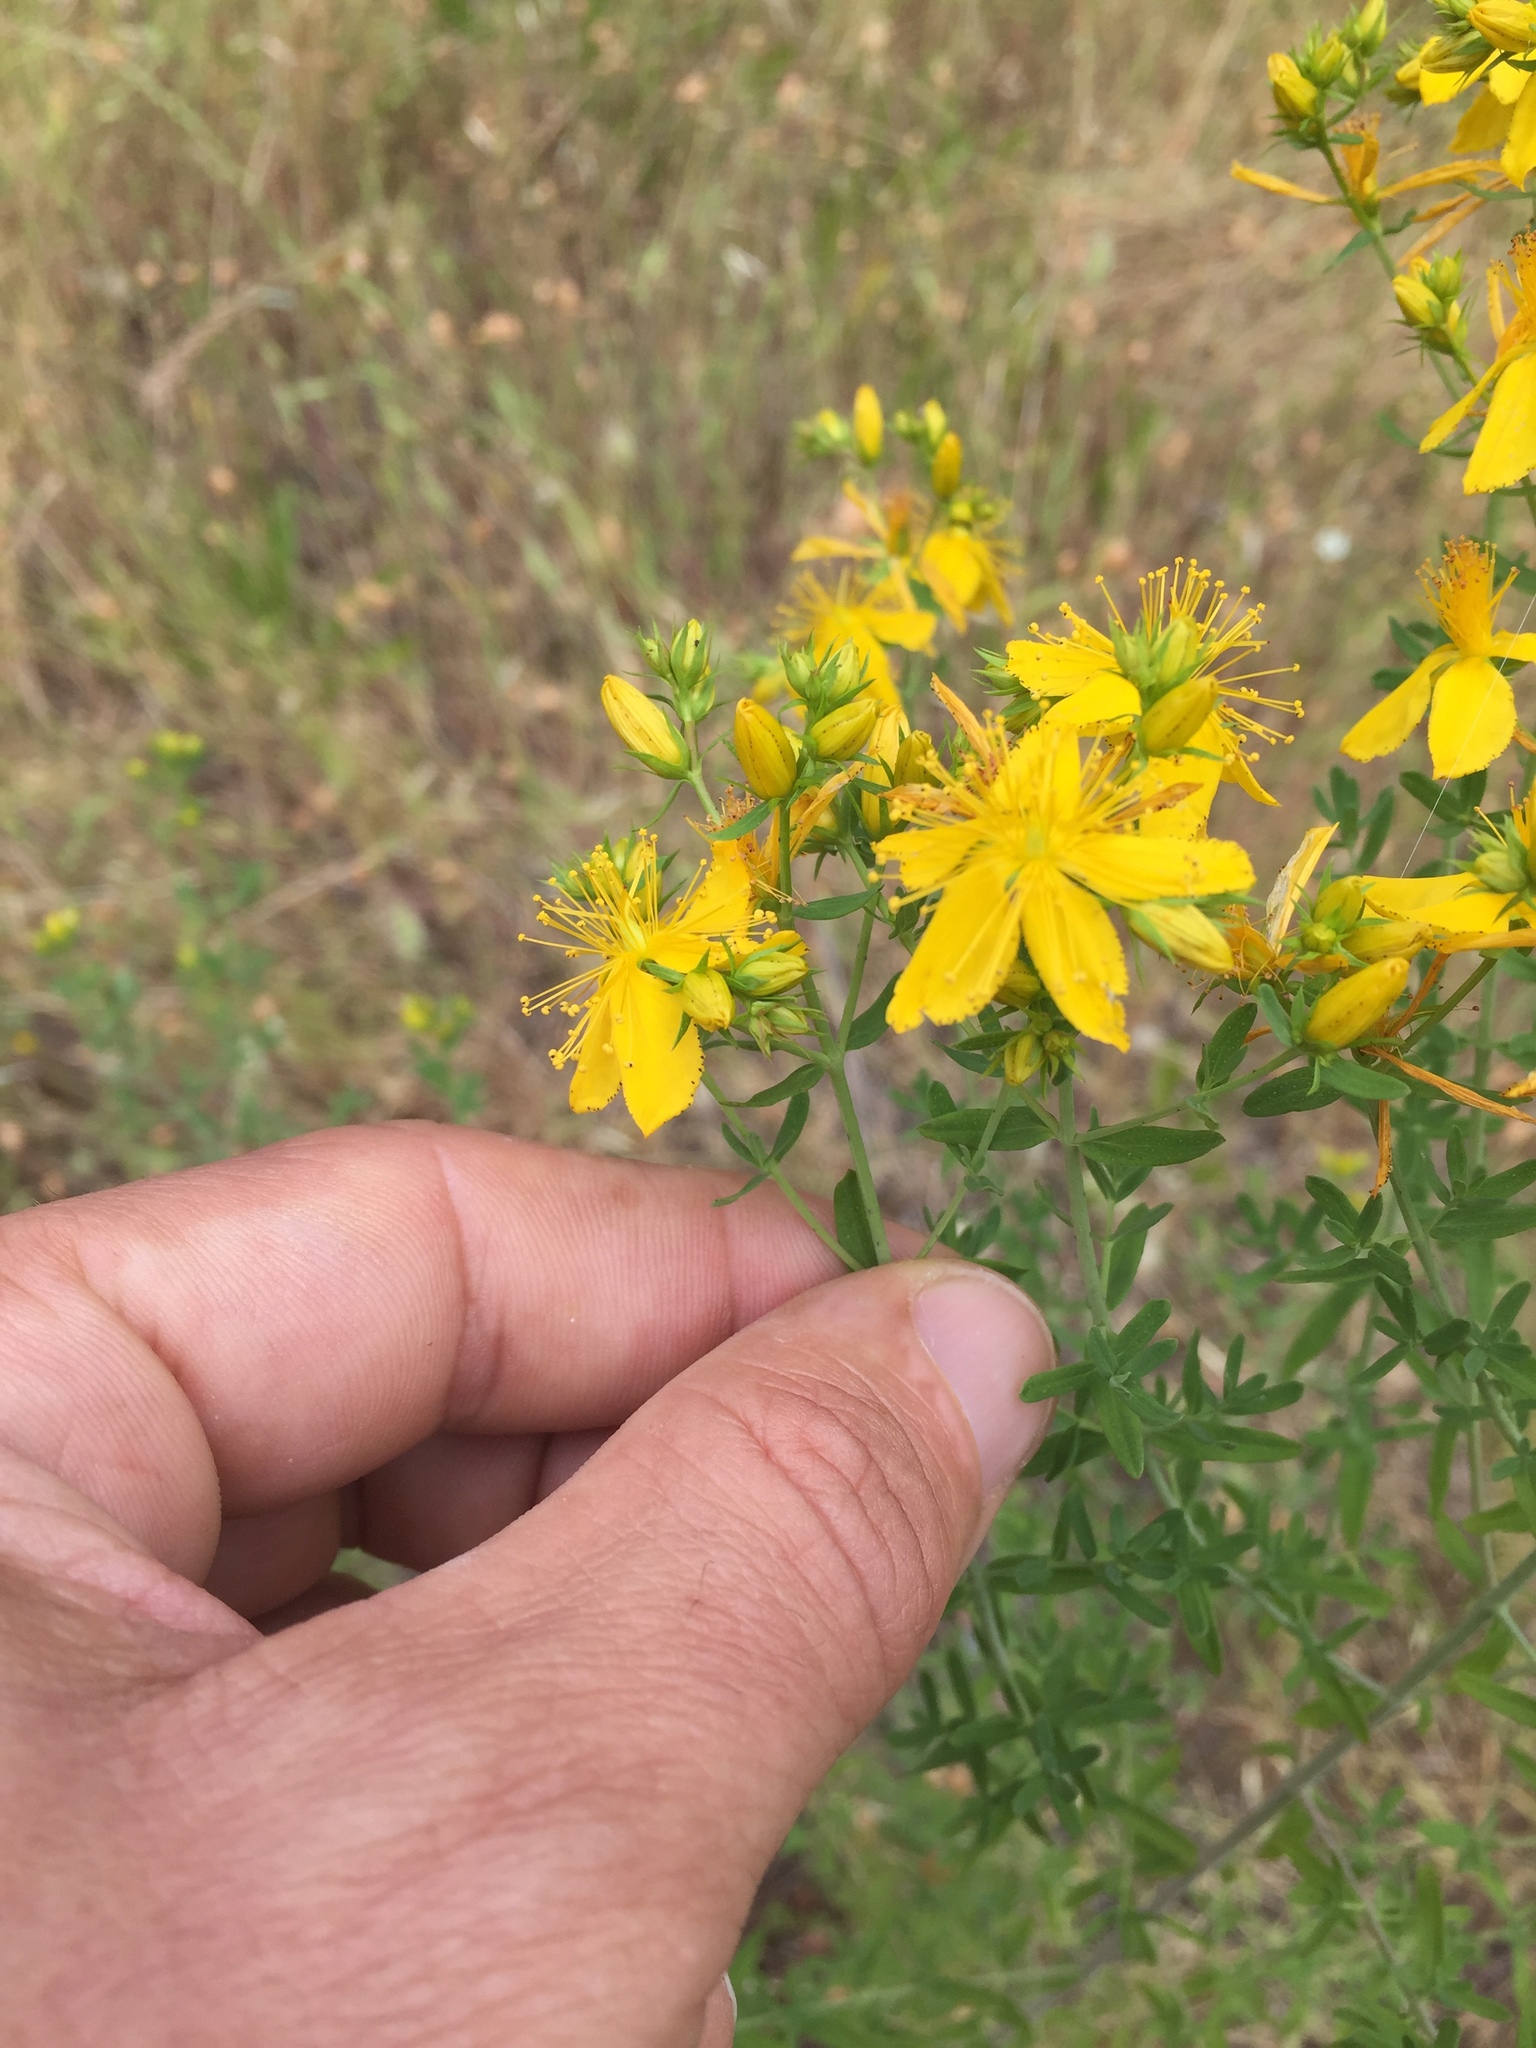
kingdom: Plantae
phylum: Tracheophyta
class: Magnoliopsida
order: Malpighiales
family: Hypericaceae
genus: Hypericum
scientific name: Hypericum perforatum
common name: Common st. johnswort
